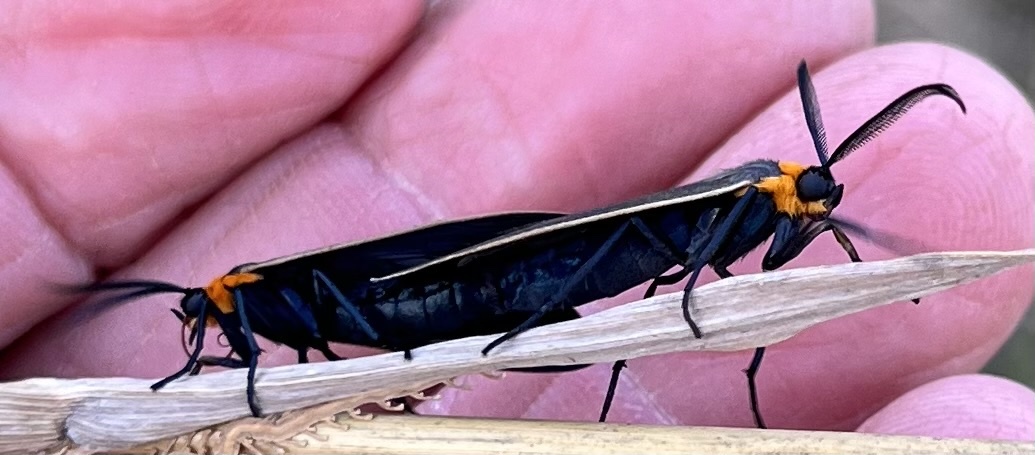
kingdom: Animalia
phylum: Arthropoda
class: Insecta
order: Lepidoptera
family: Erebidae
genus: Cisseps
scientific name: Cisseps fulvicollis
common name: Yellow-collared scape moth
